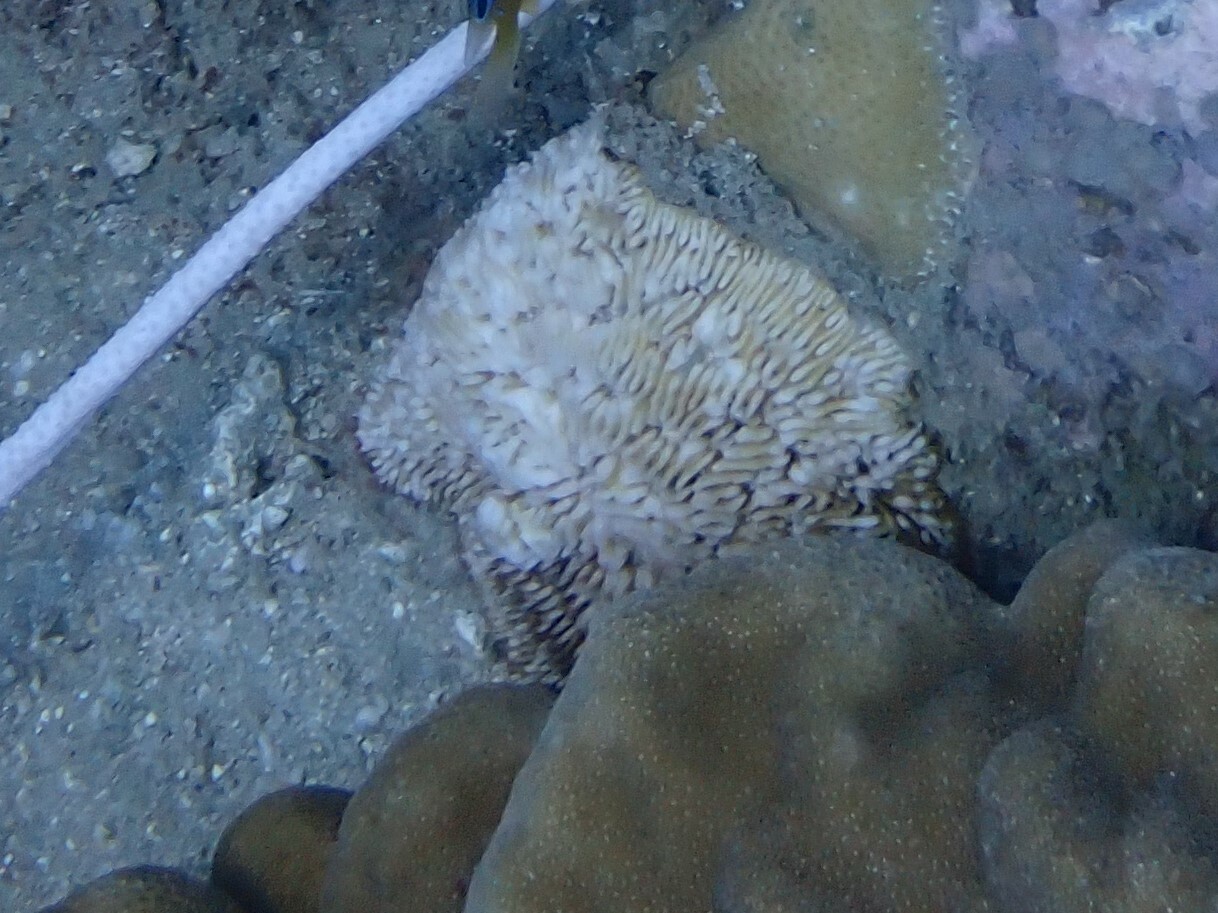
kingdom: Animalia
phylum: Cnidaria
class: Anthozoa
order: Scleractinia
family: Fungiidae
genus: Lithophyllon
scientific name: Lithophyllon undulatum
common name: Stone-leaf coral
